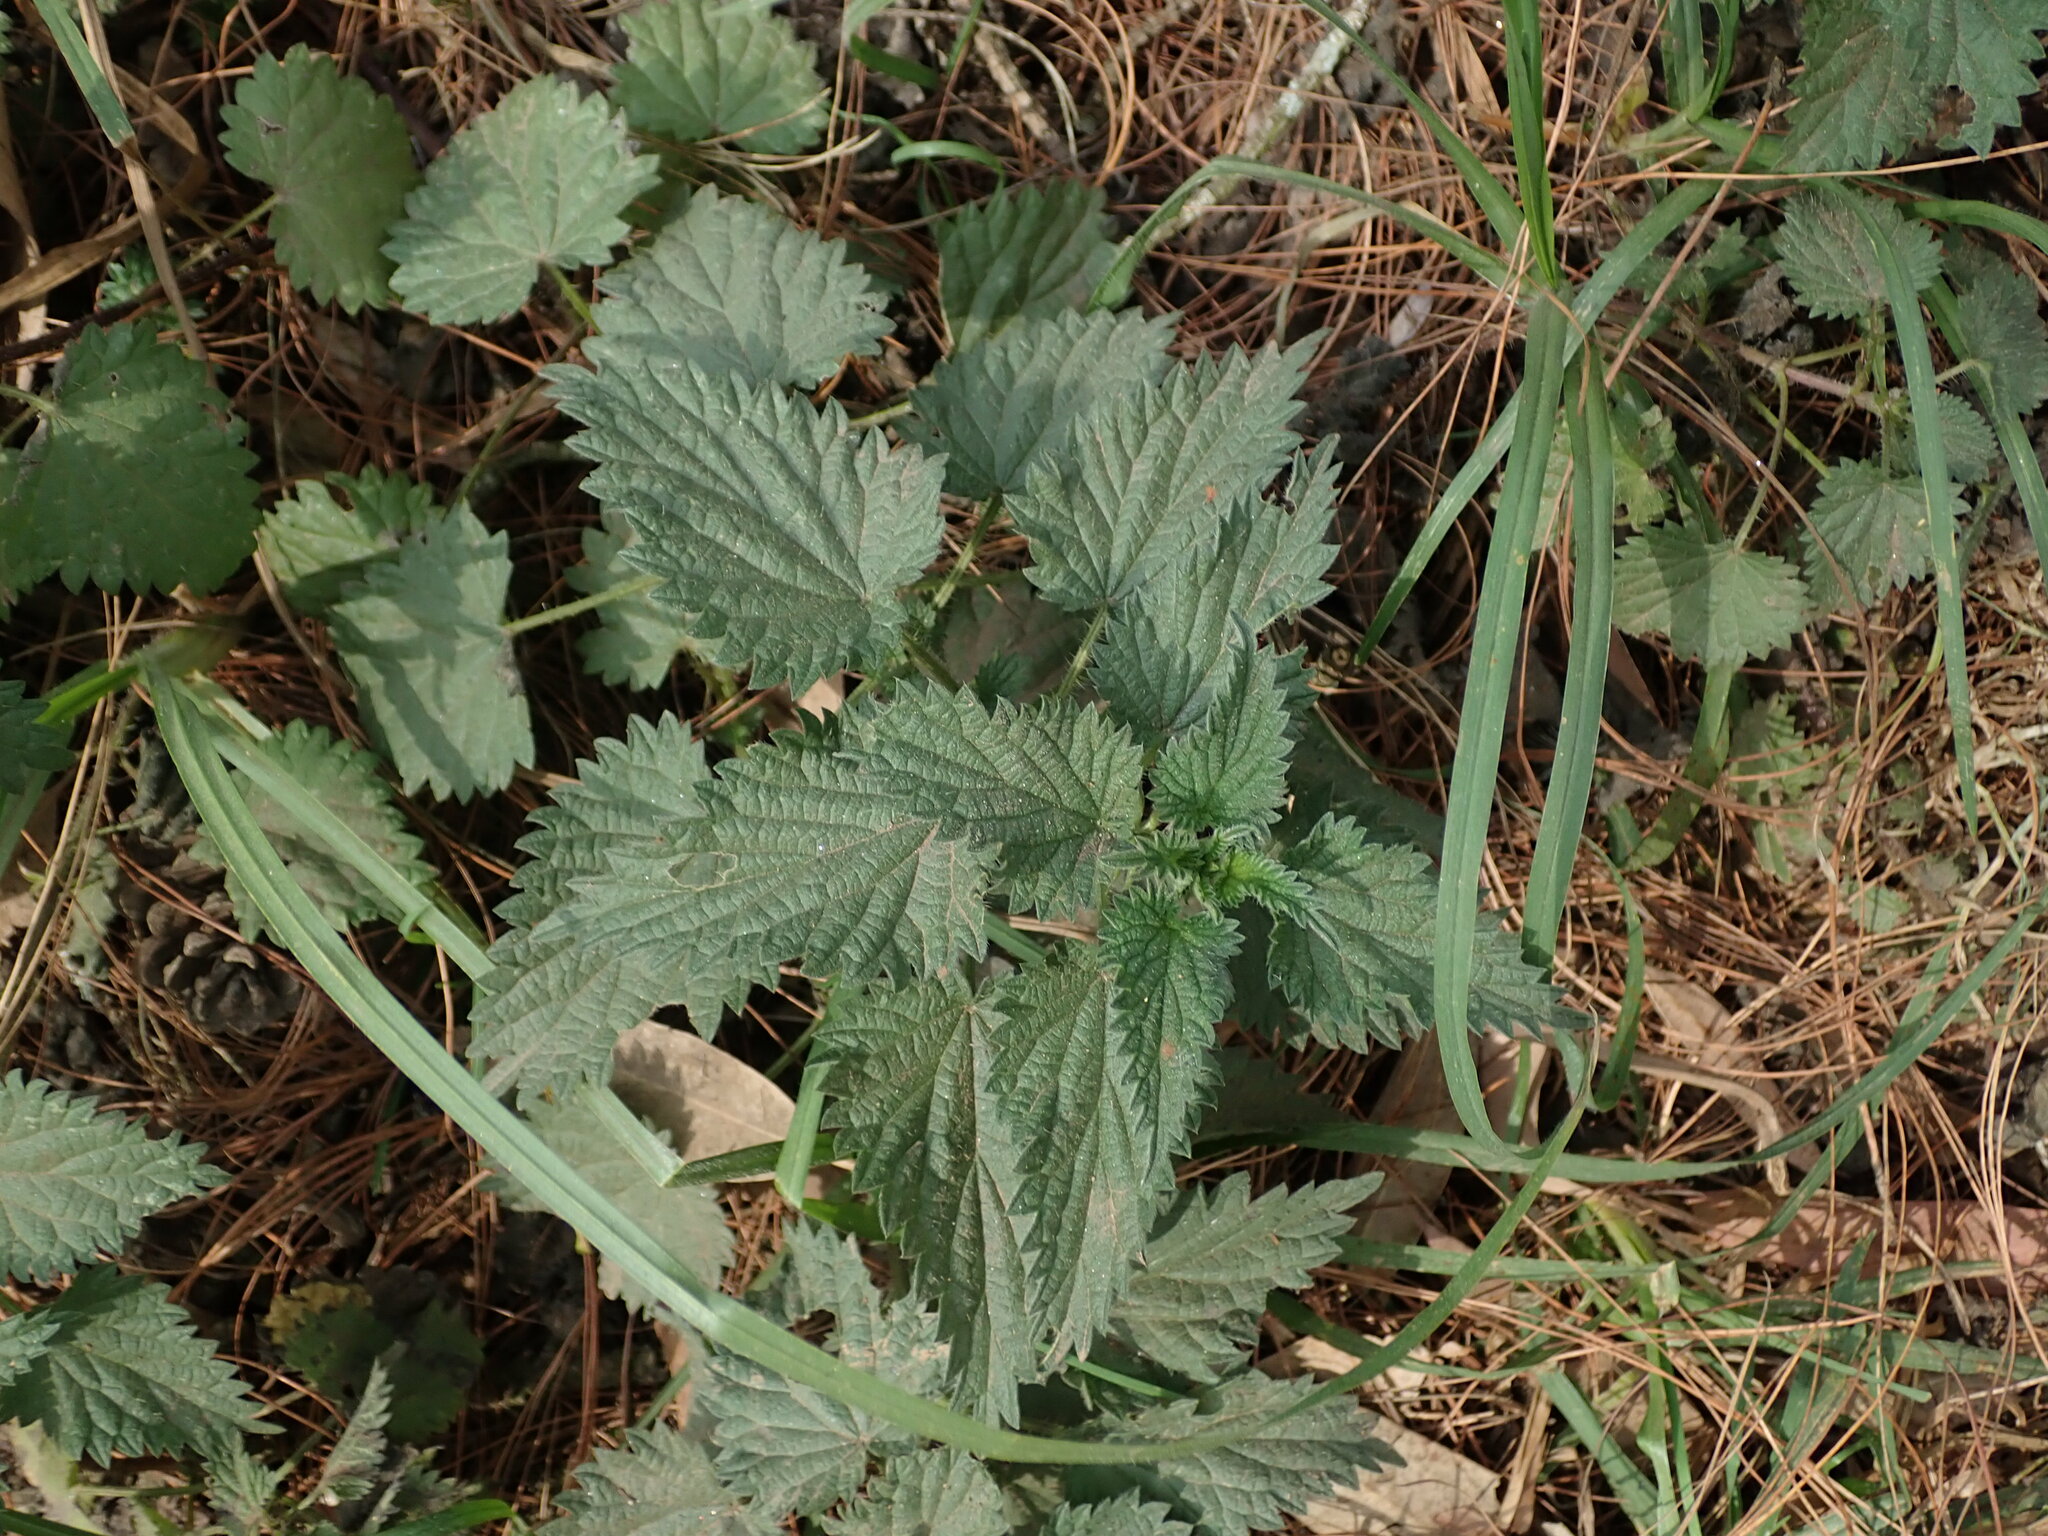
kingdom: Plantae
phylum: Tracheophyta
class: Magnoliopsida
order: Rosales
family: Urticaceae
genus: Urtica
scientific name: Urtica dioica
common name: Common nettle
